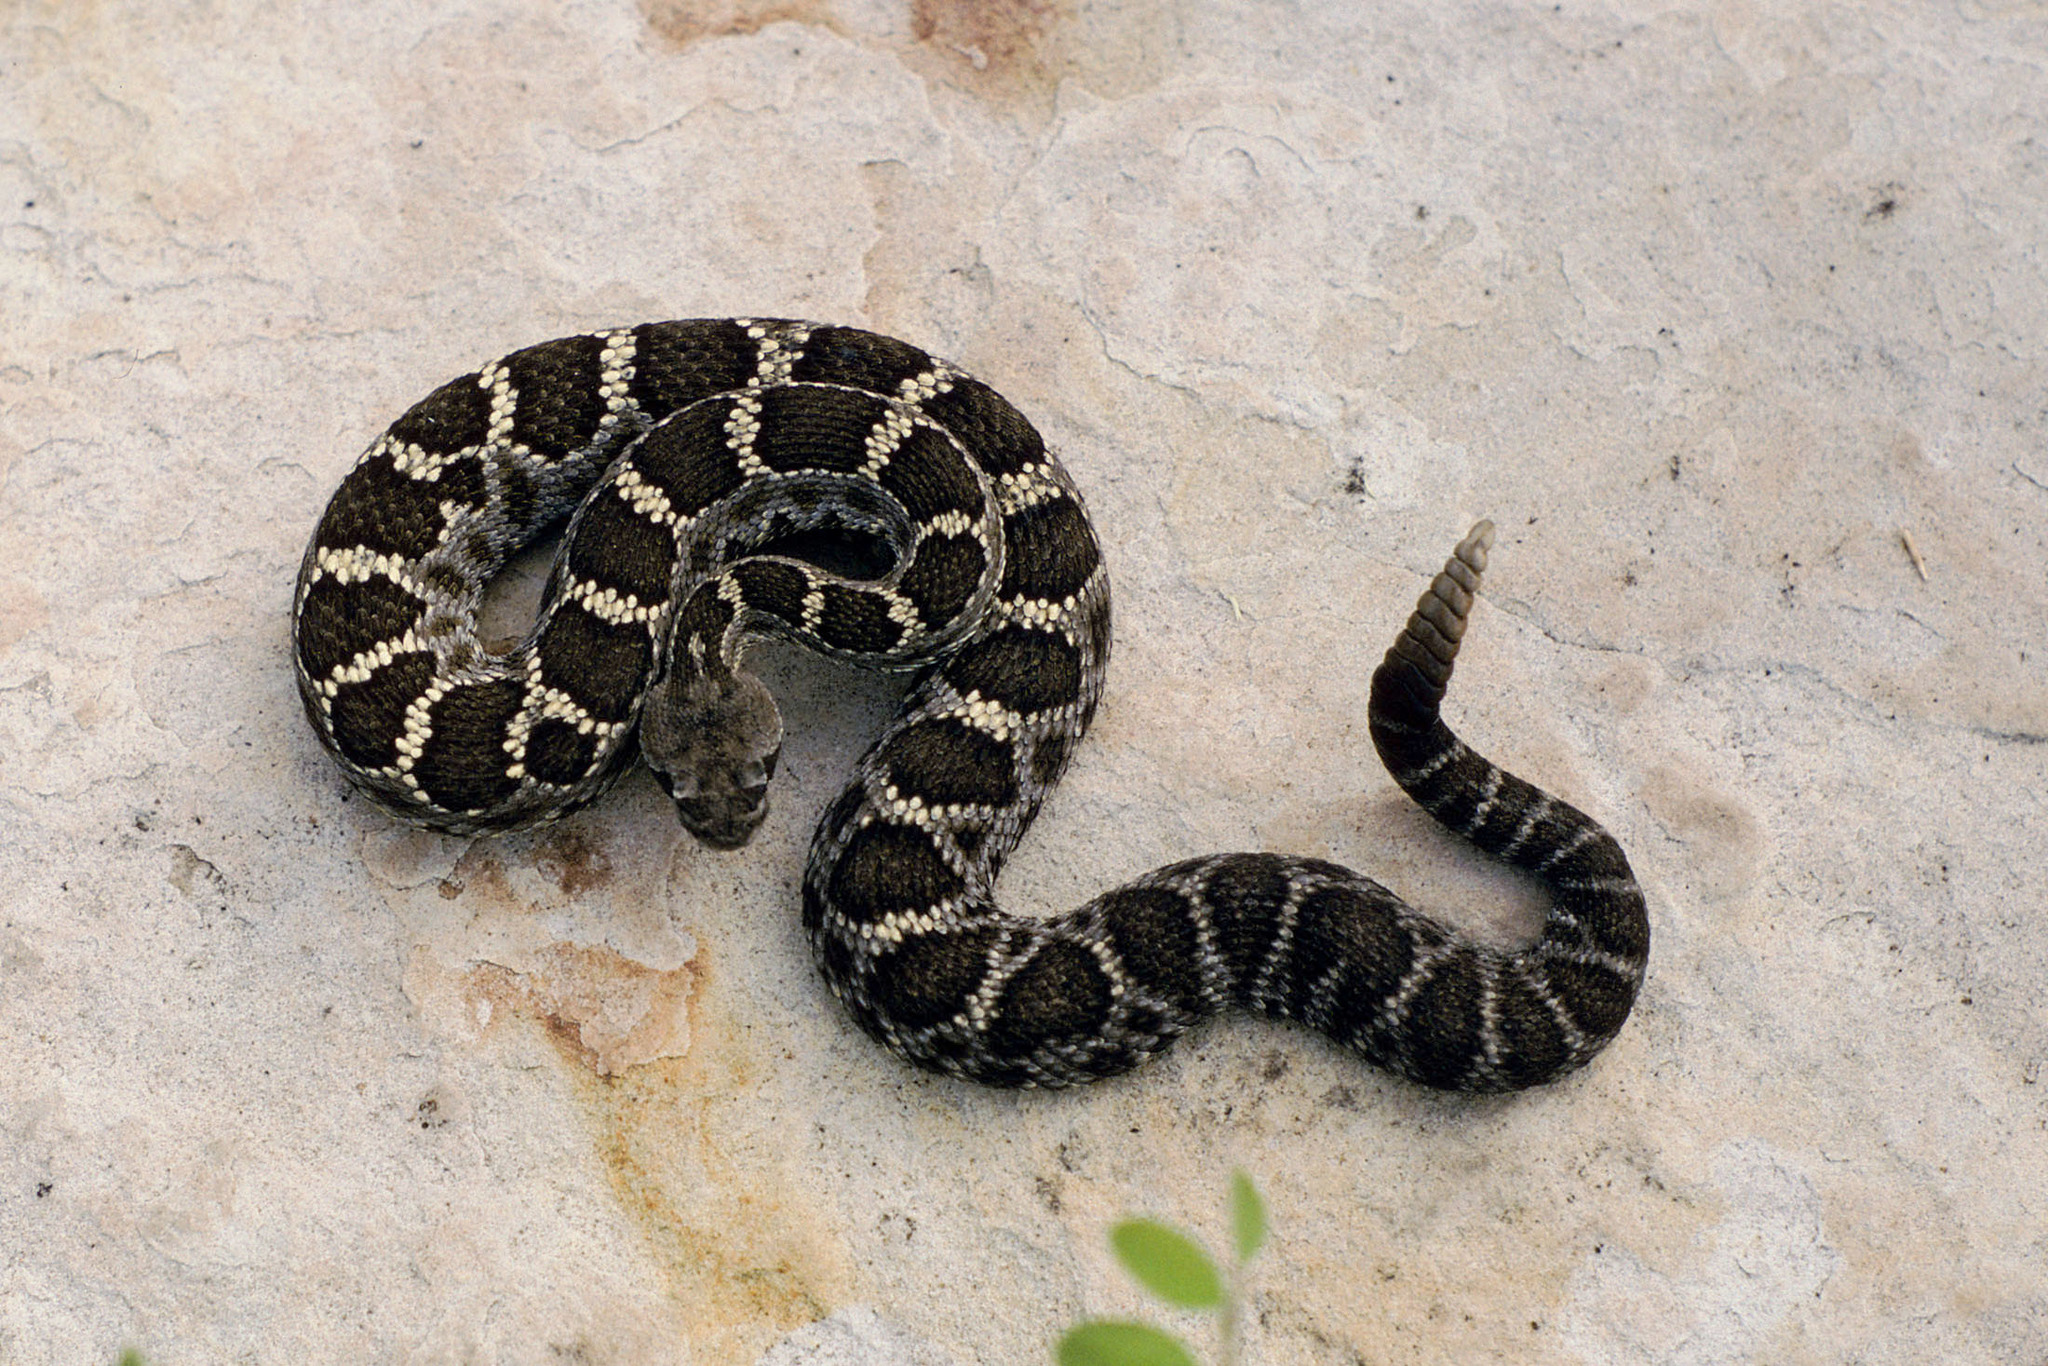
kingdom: Animalia
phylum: Chordata
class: Squamata
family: Viperidae
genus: Crotalus
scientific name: Crotalus cerberus
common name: Arizona black rattlesnake
